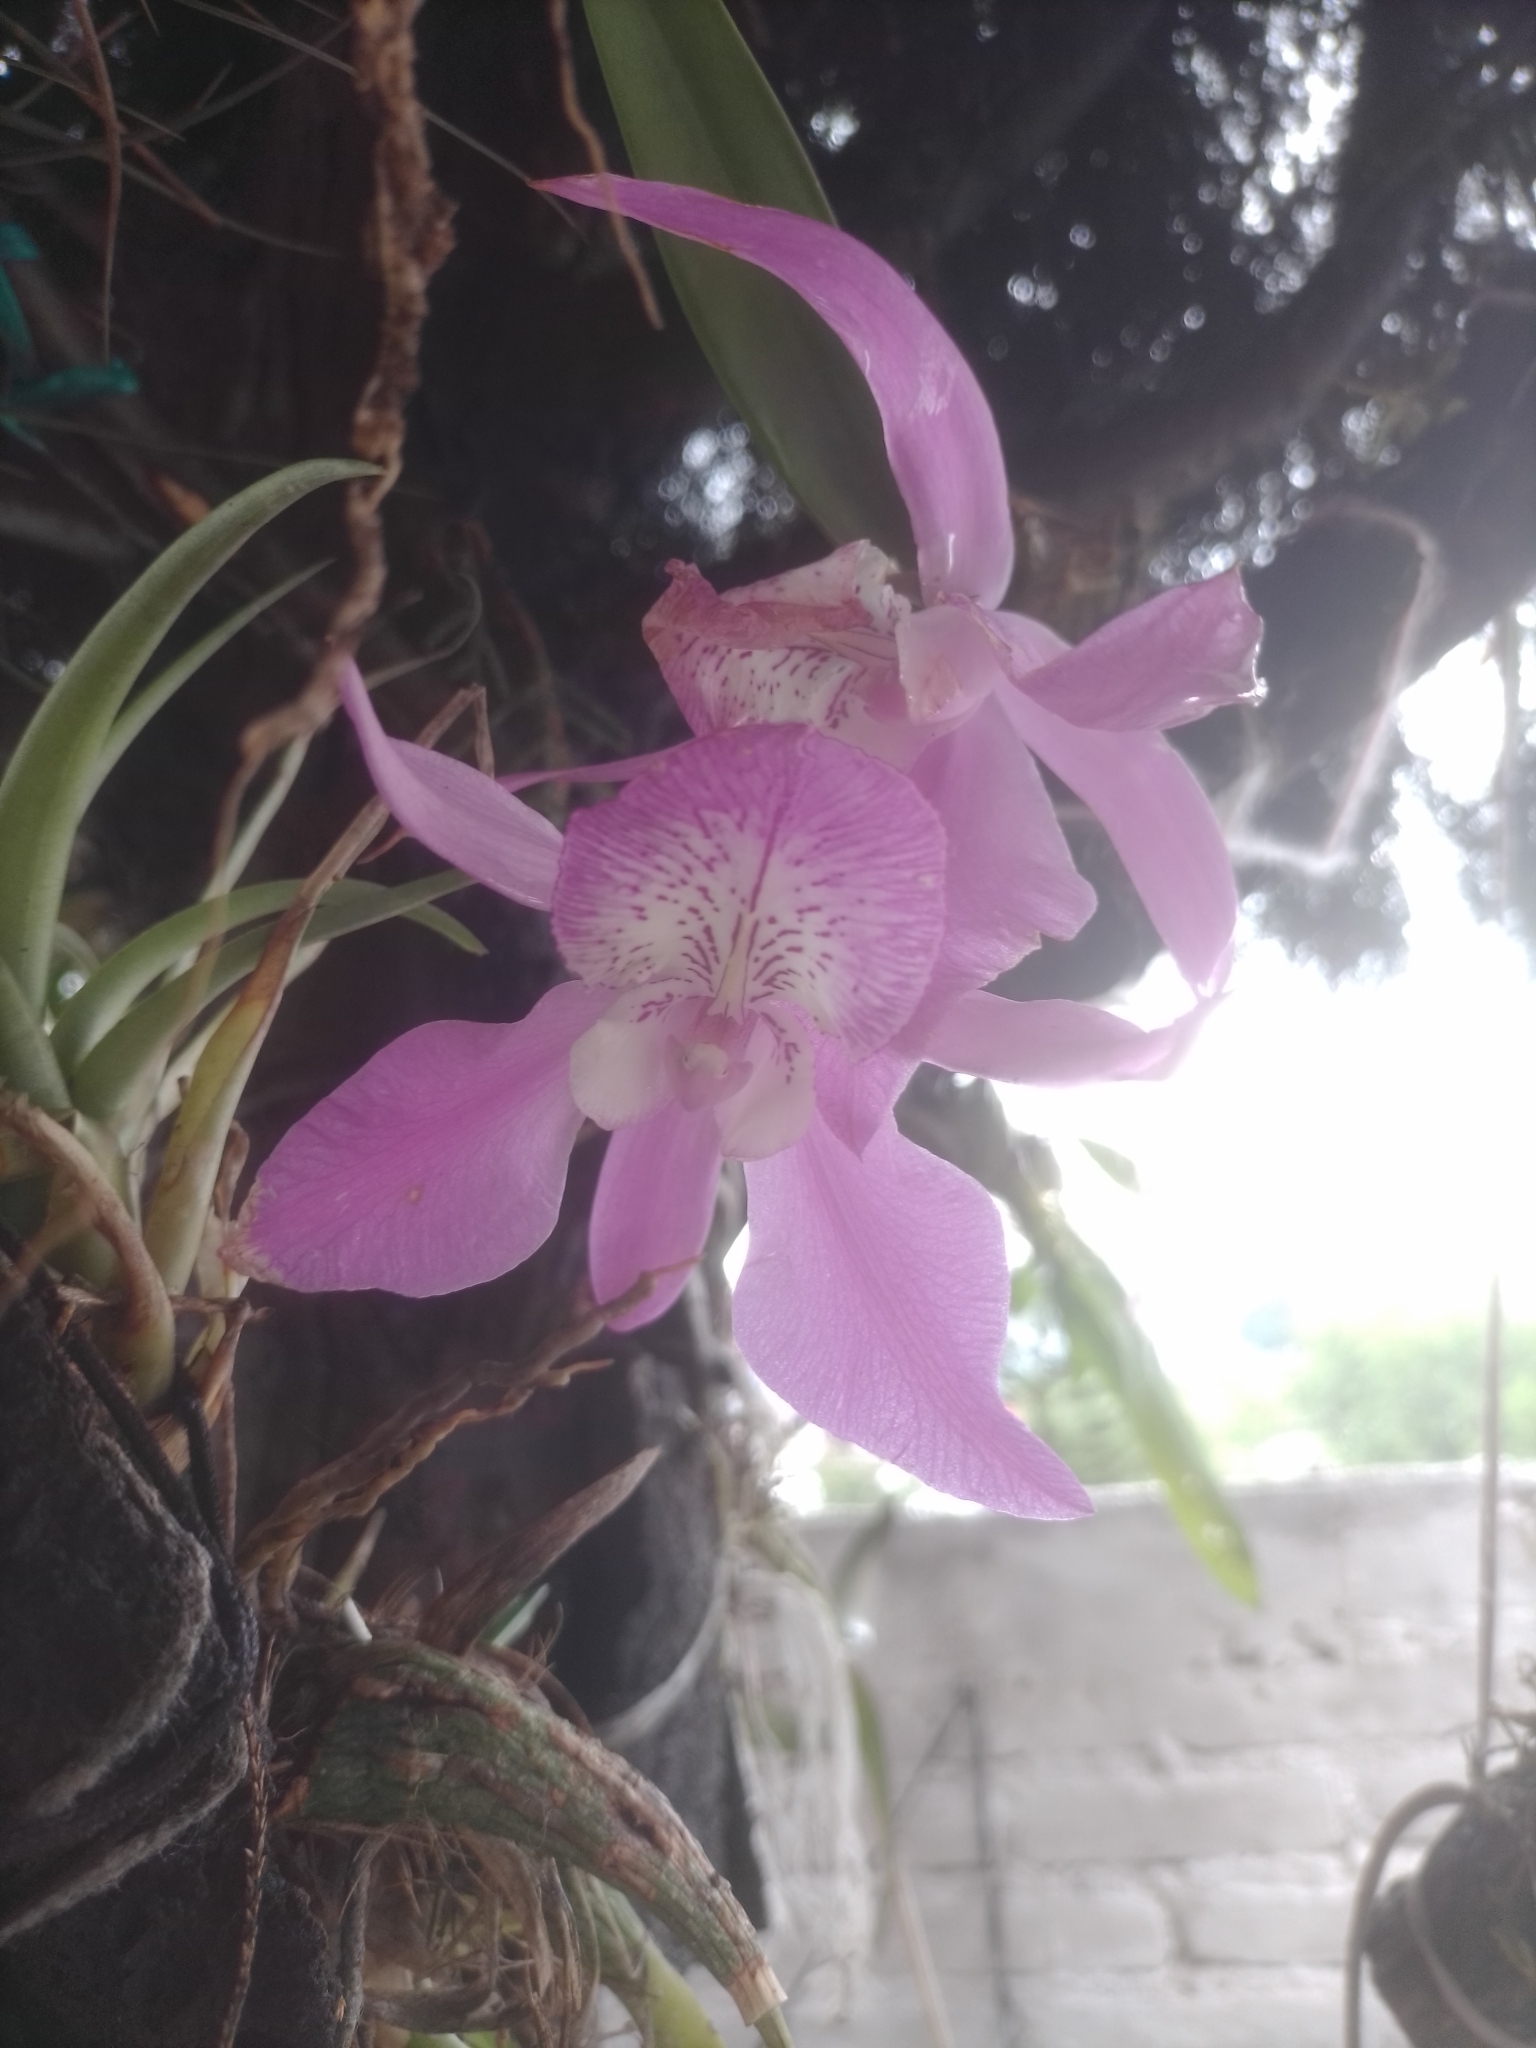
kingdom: Plantae
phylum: Tracheophyta
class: Liliopsida
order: Asparagales
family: Orchidaceae
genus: Laelia
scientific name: Laelia speciosa
